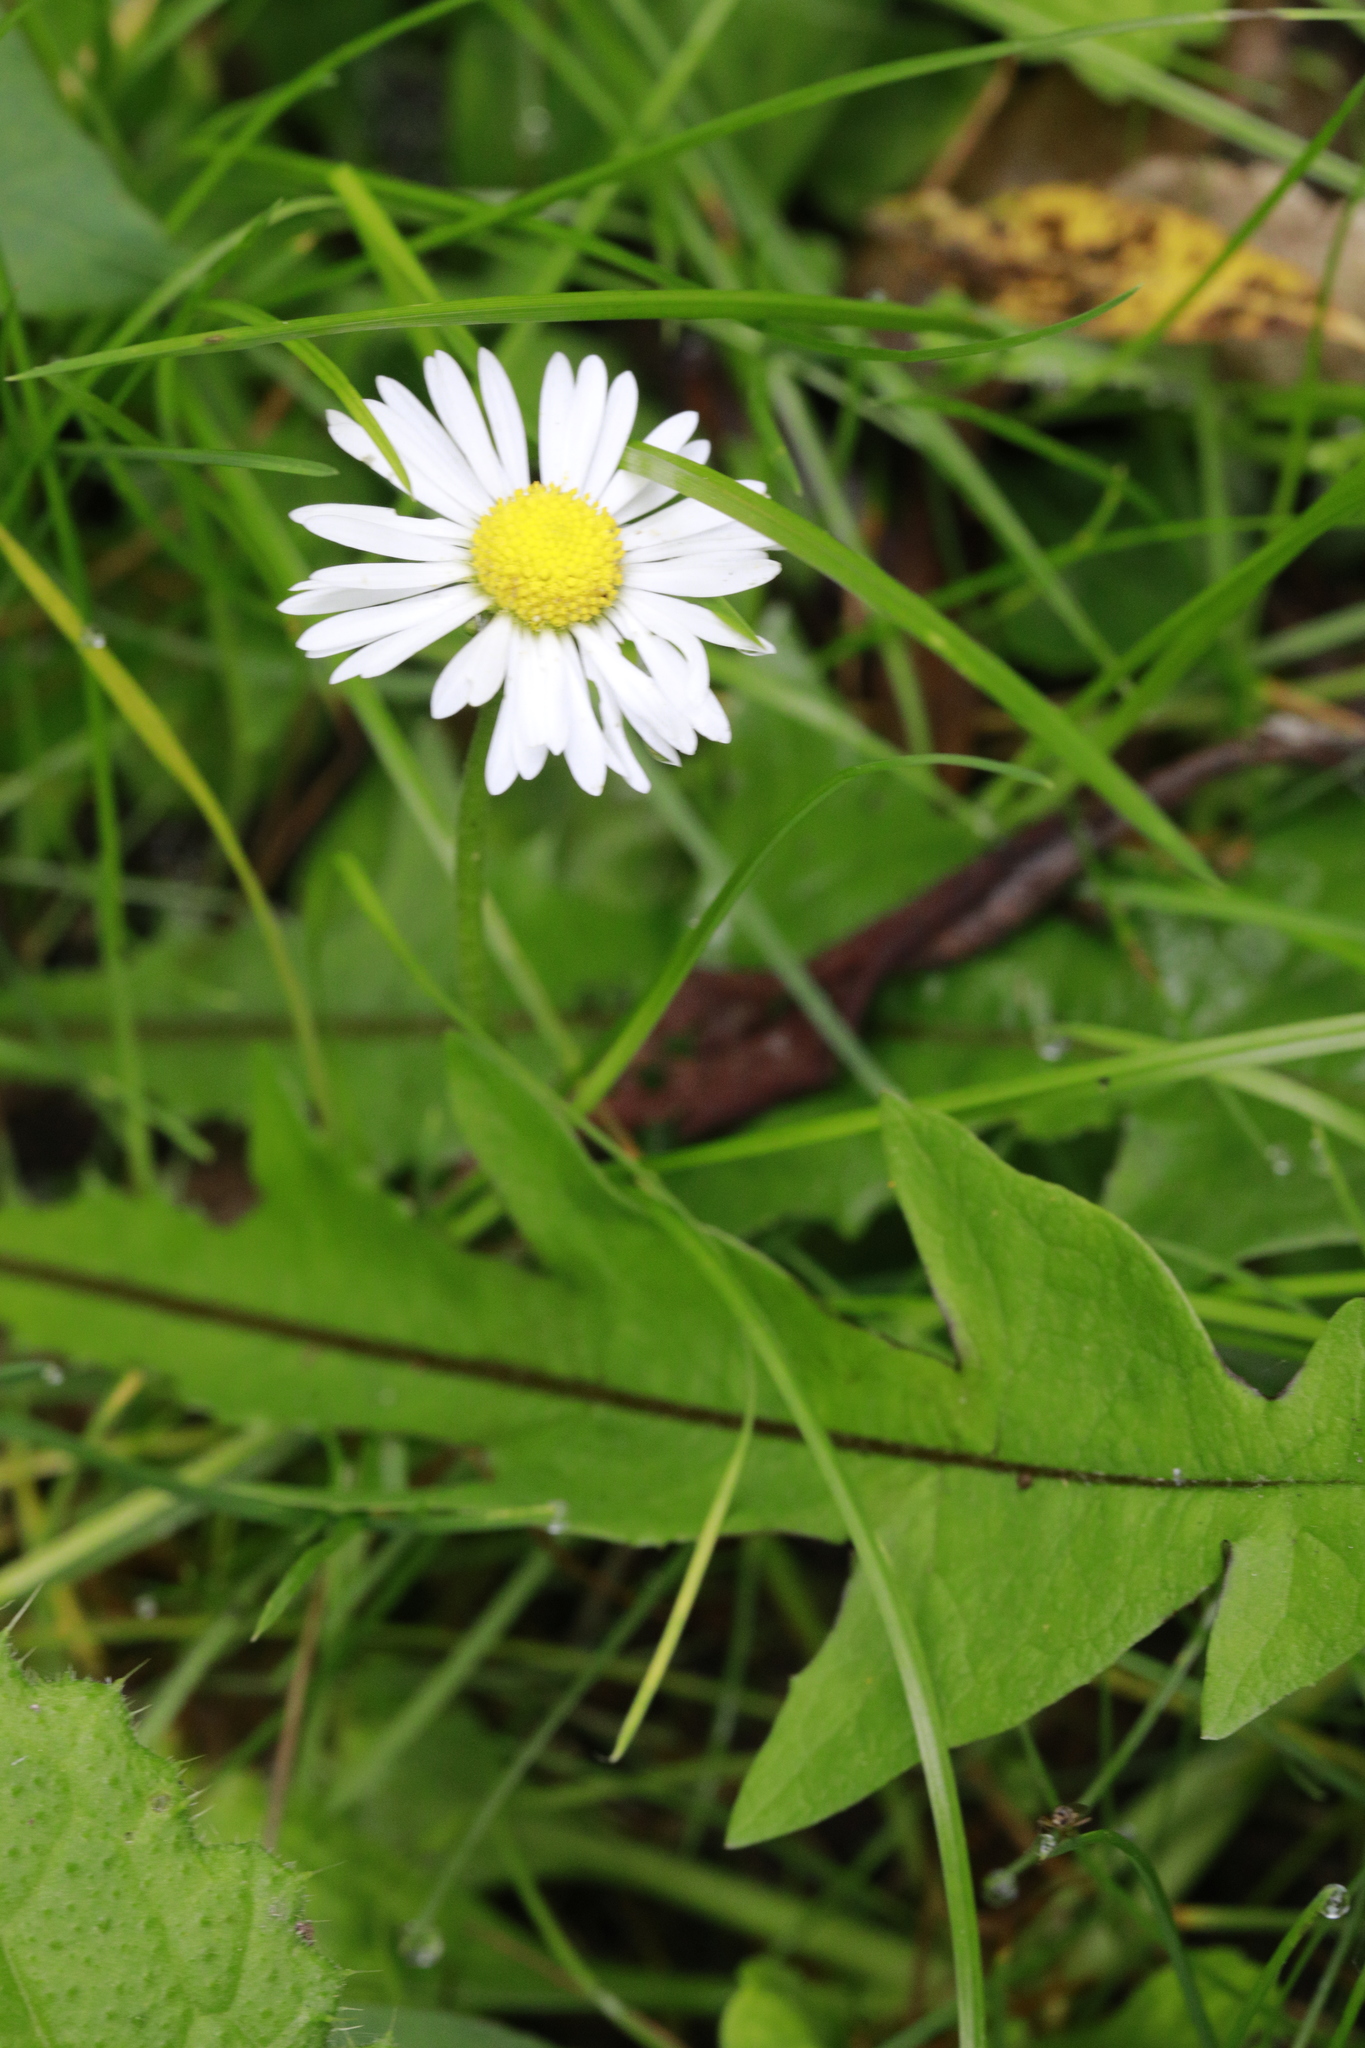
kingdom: Plantae
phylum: Tracheophyta
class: Magnoliopsida
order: Asterales
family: Asteraceae
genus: Bellis
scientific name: Bellis perennis
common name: Lawndaisy
